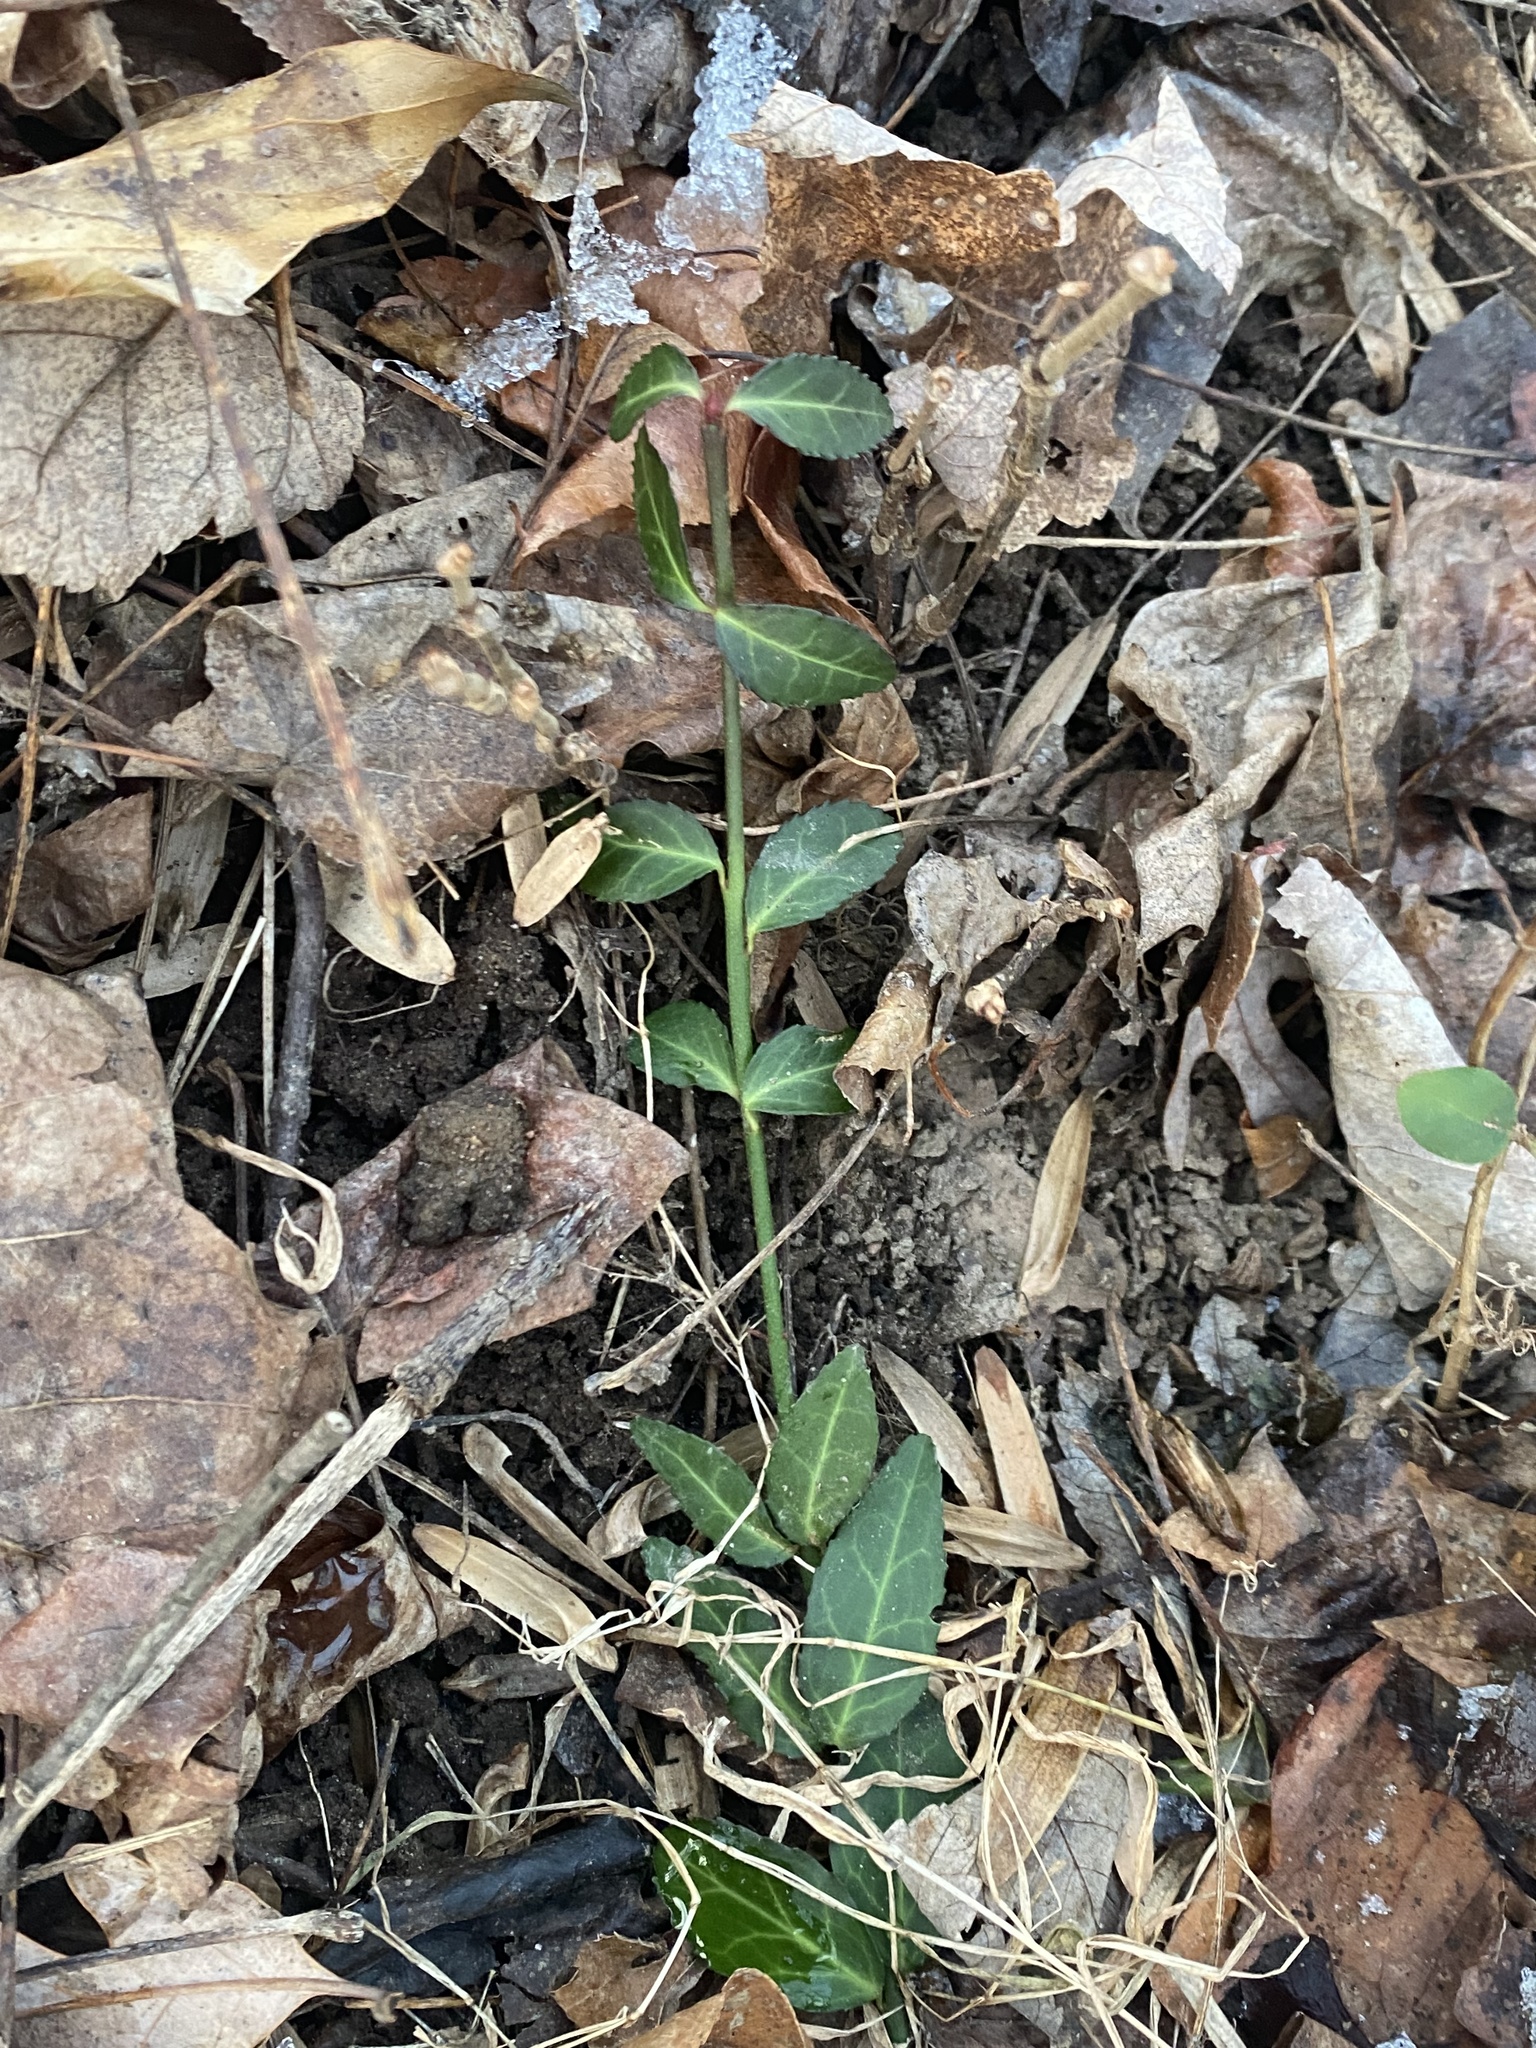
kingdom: Plantae
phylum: Tracheophyta
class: Magnoliopsida
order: Celastrales
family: Celastraceae
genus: Euonymus
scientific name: Euonymus fortunei
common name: Climbing euonymus
